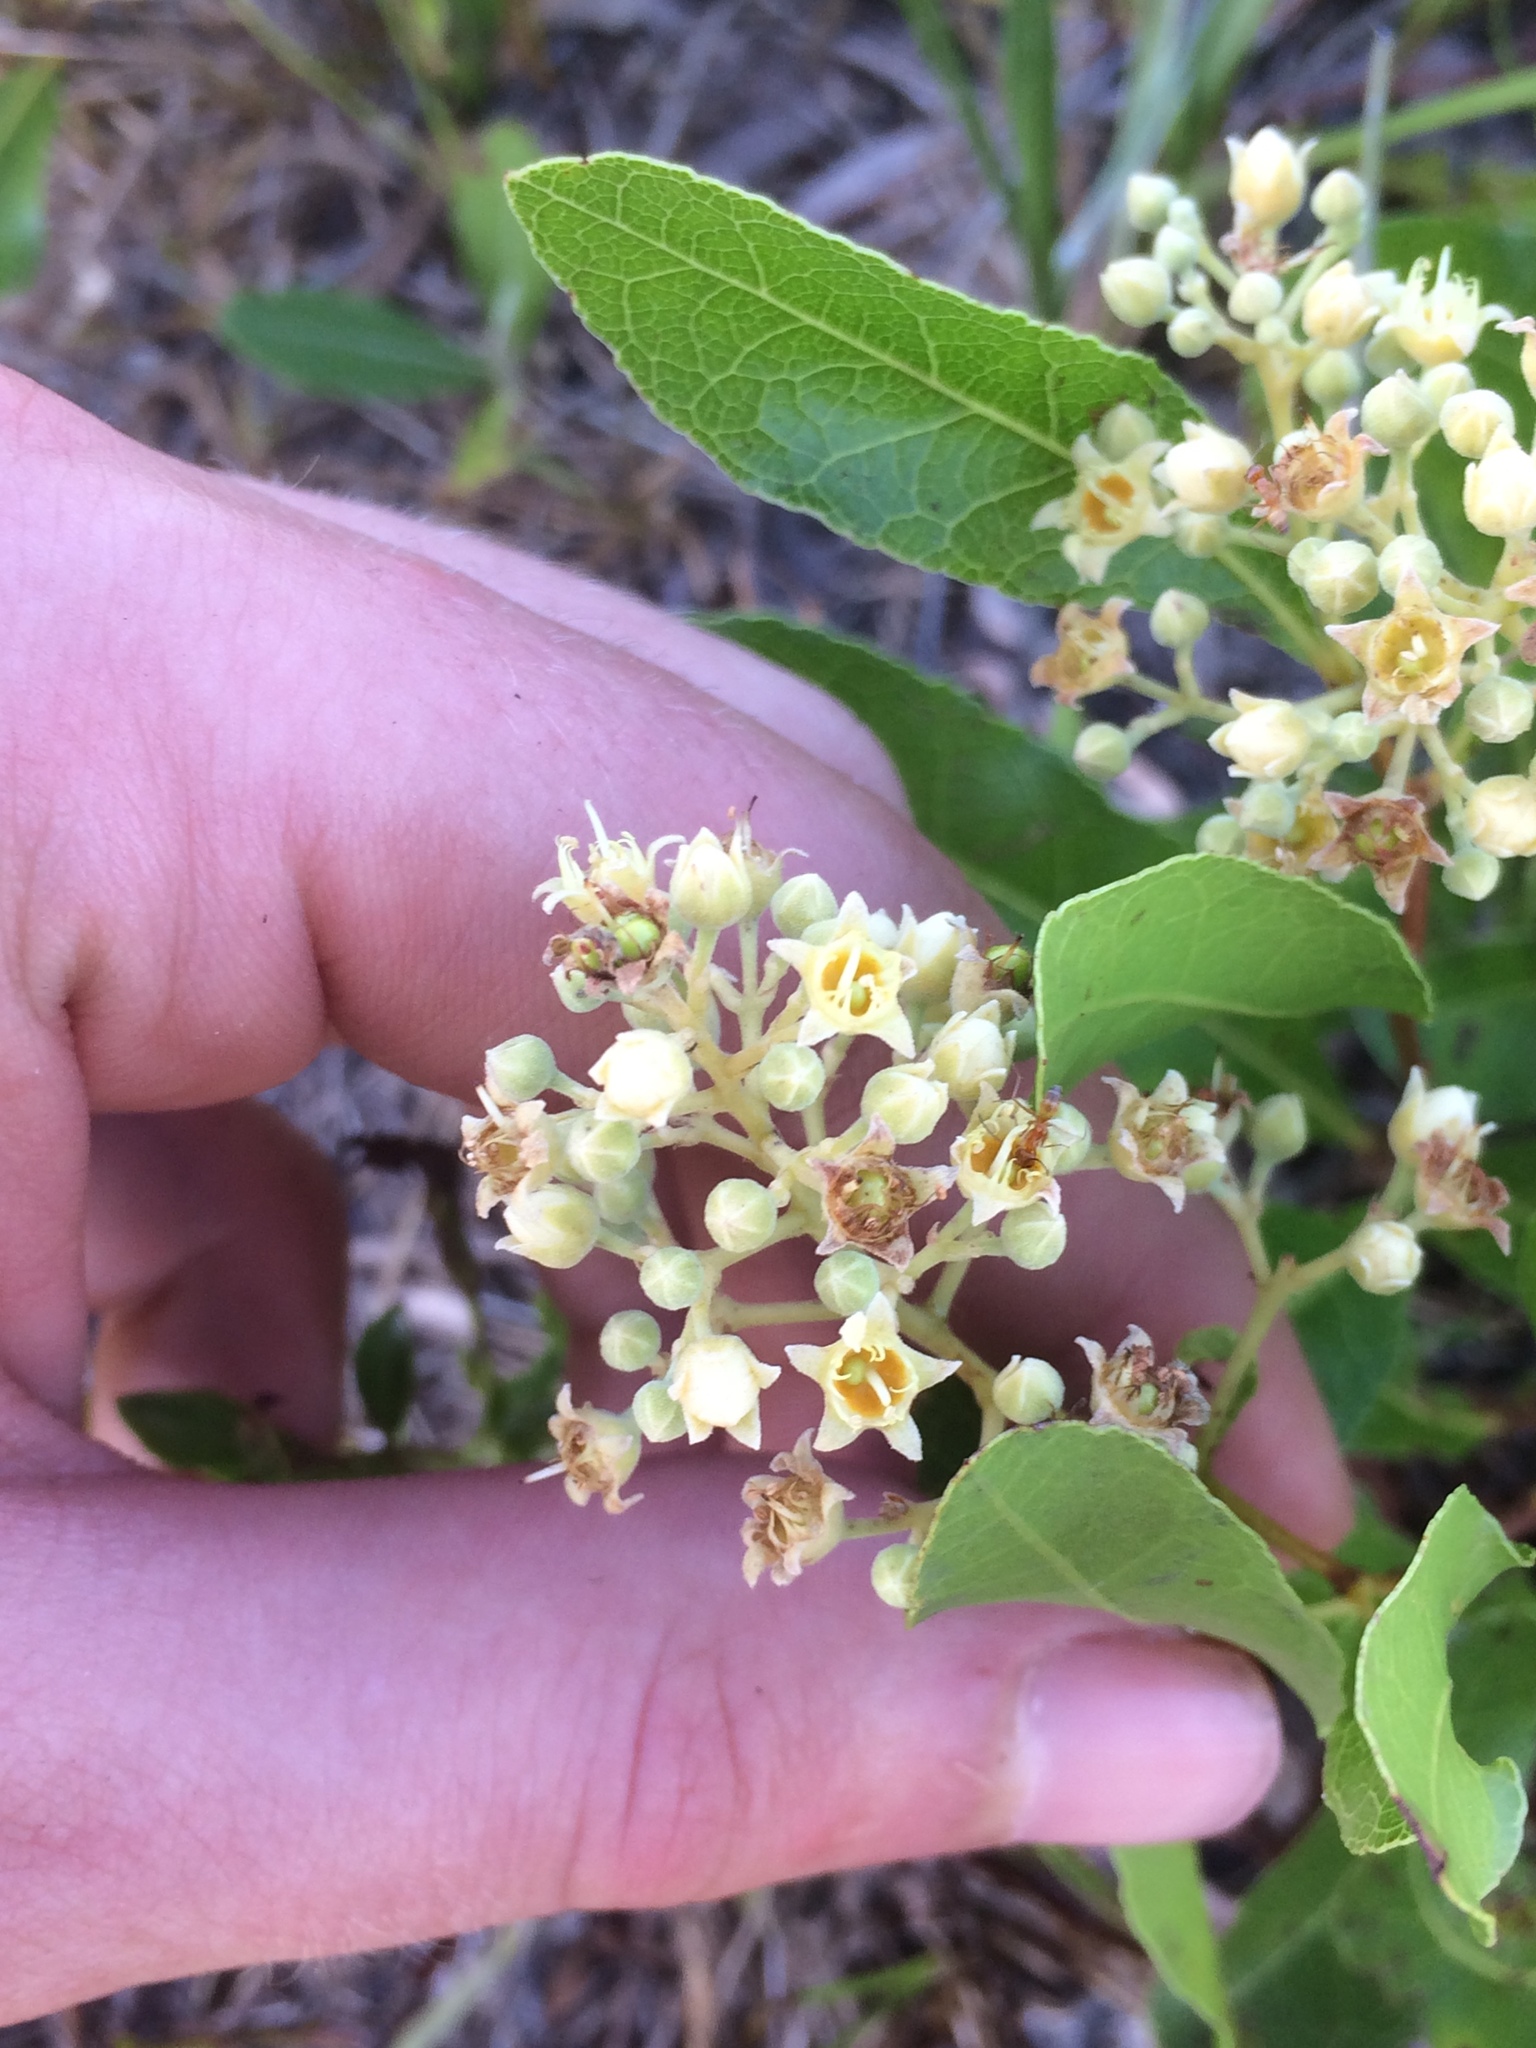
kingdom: Plantae
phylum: Tracheophyta
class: Magnoliopsida
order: Malpighiales
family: Chrysobalanaceae
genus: Geobalanus
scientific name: Geobalanus oblongifolius
